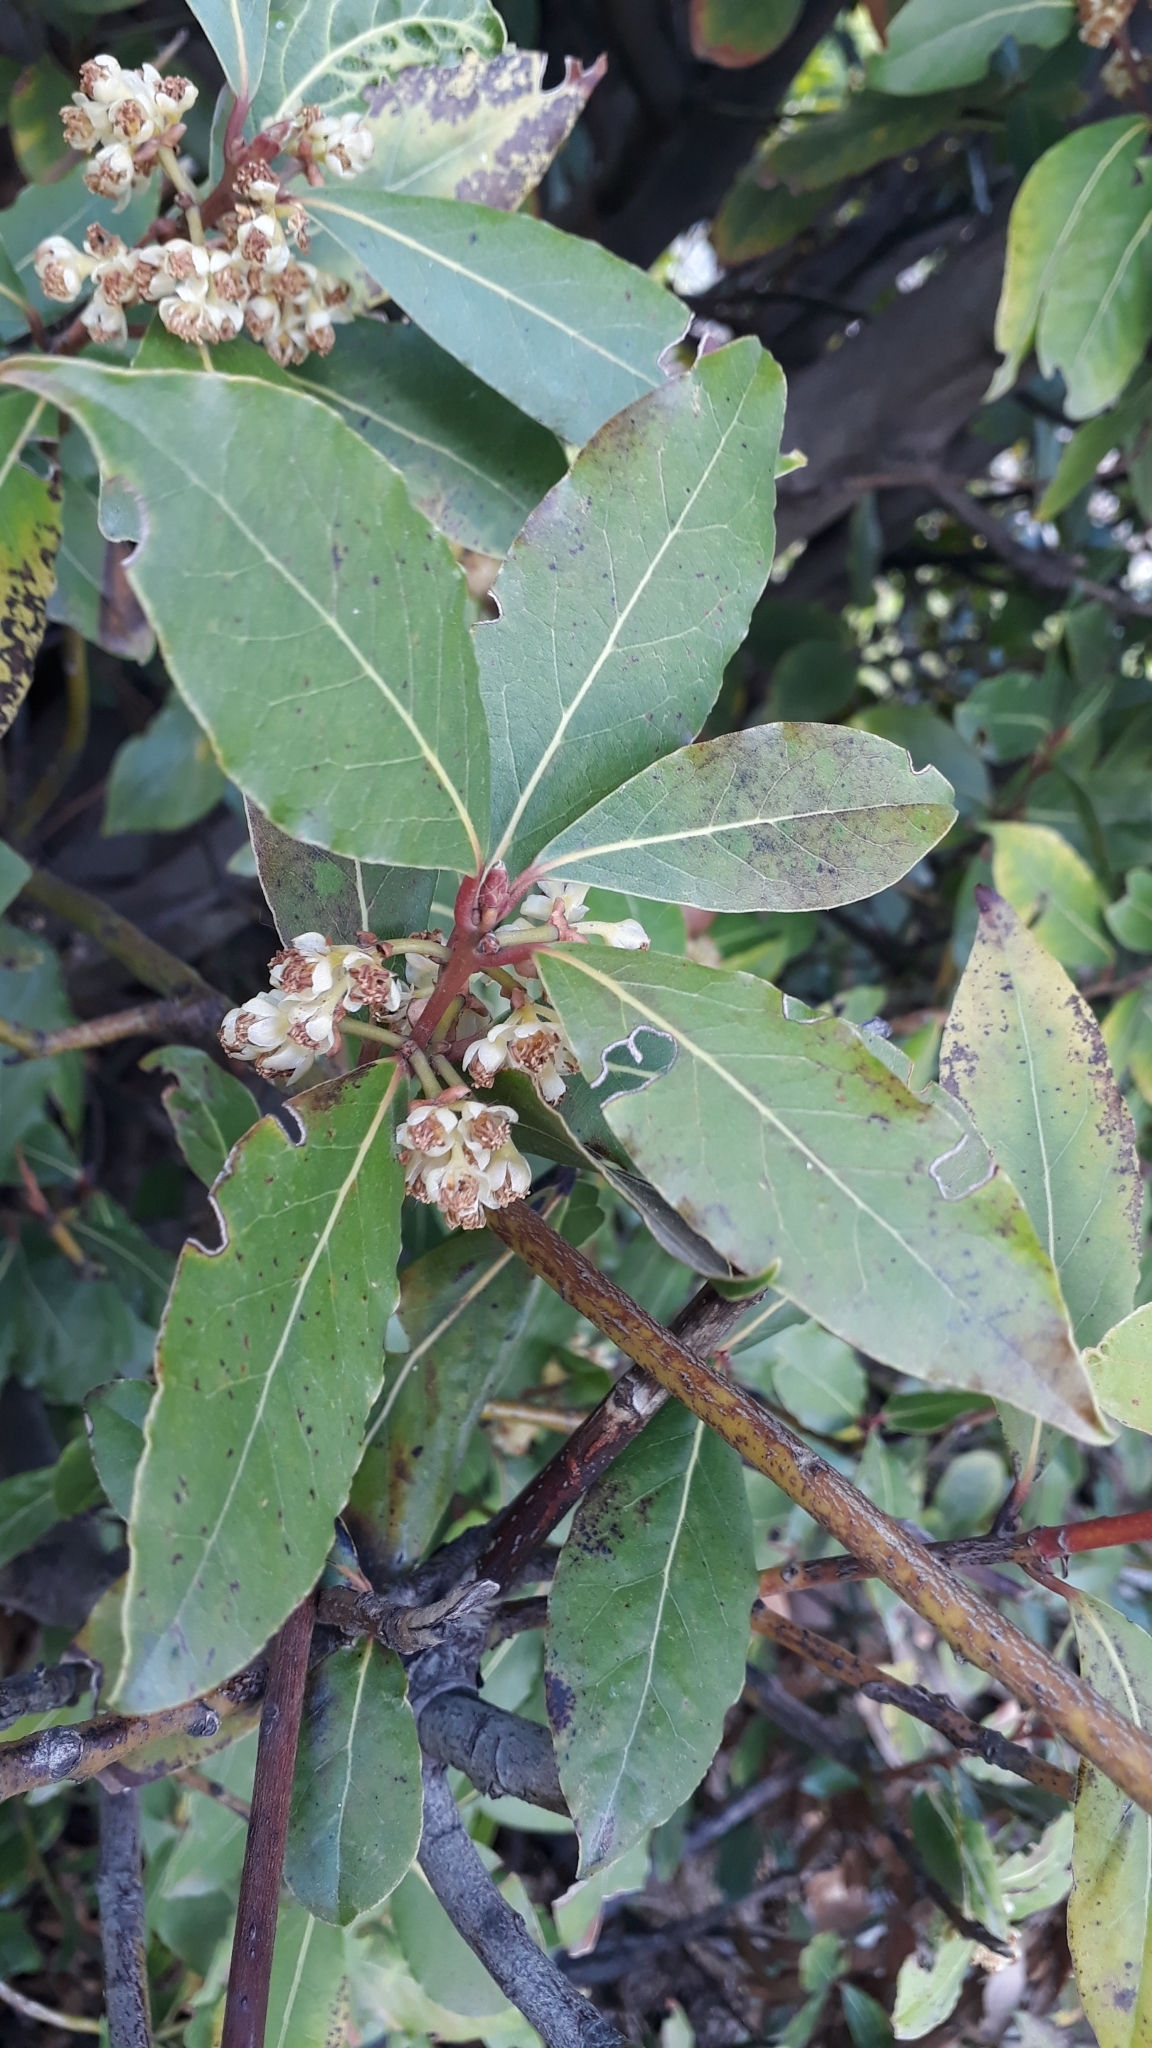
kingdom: Plantae
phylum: Tracheophyta
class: Magnoliopsida
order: Laurales
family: Lauraceae
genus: Laurus
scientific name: Laurus nobilis
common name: Bay
